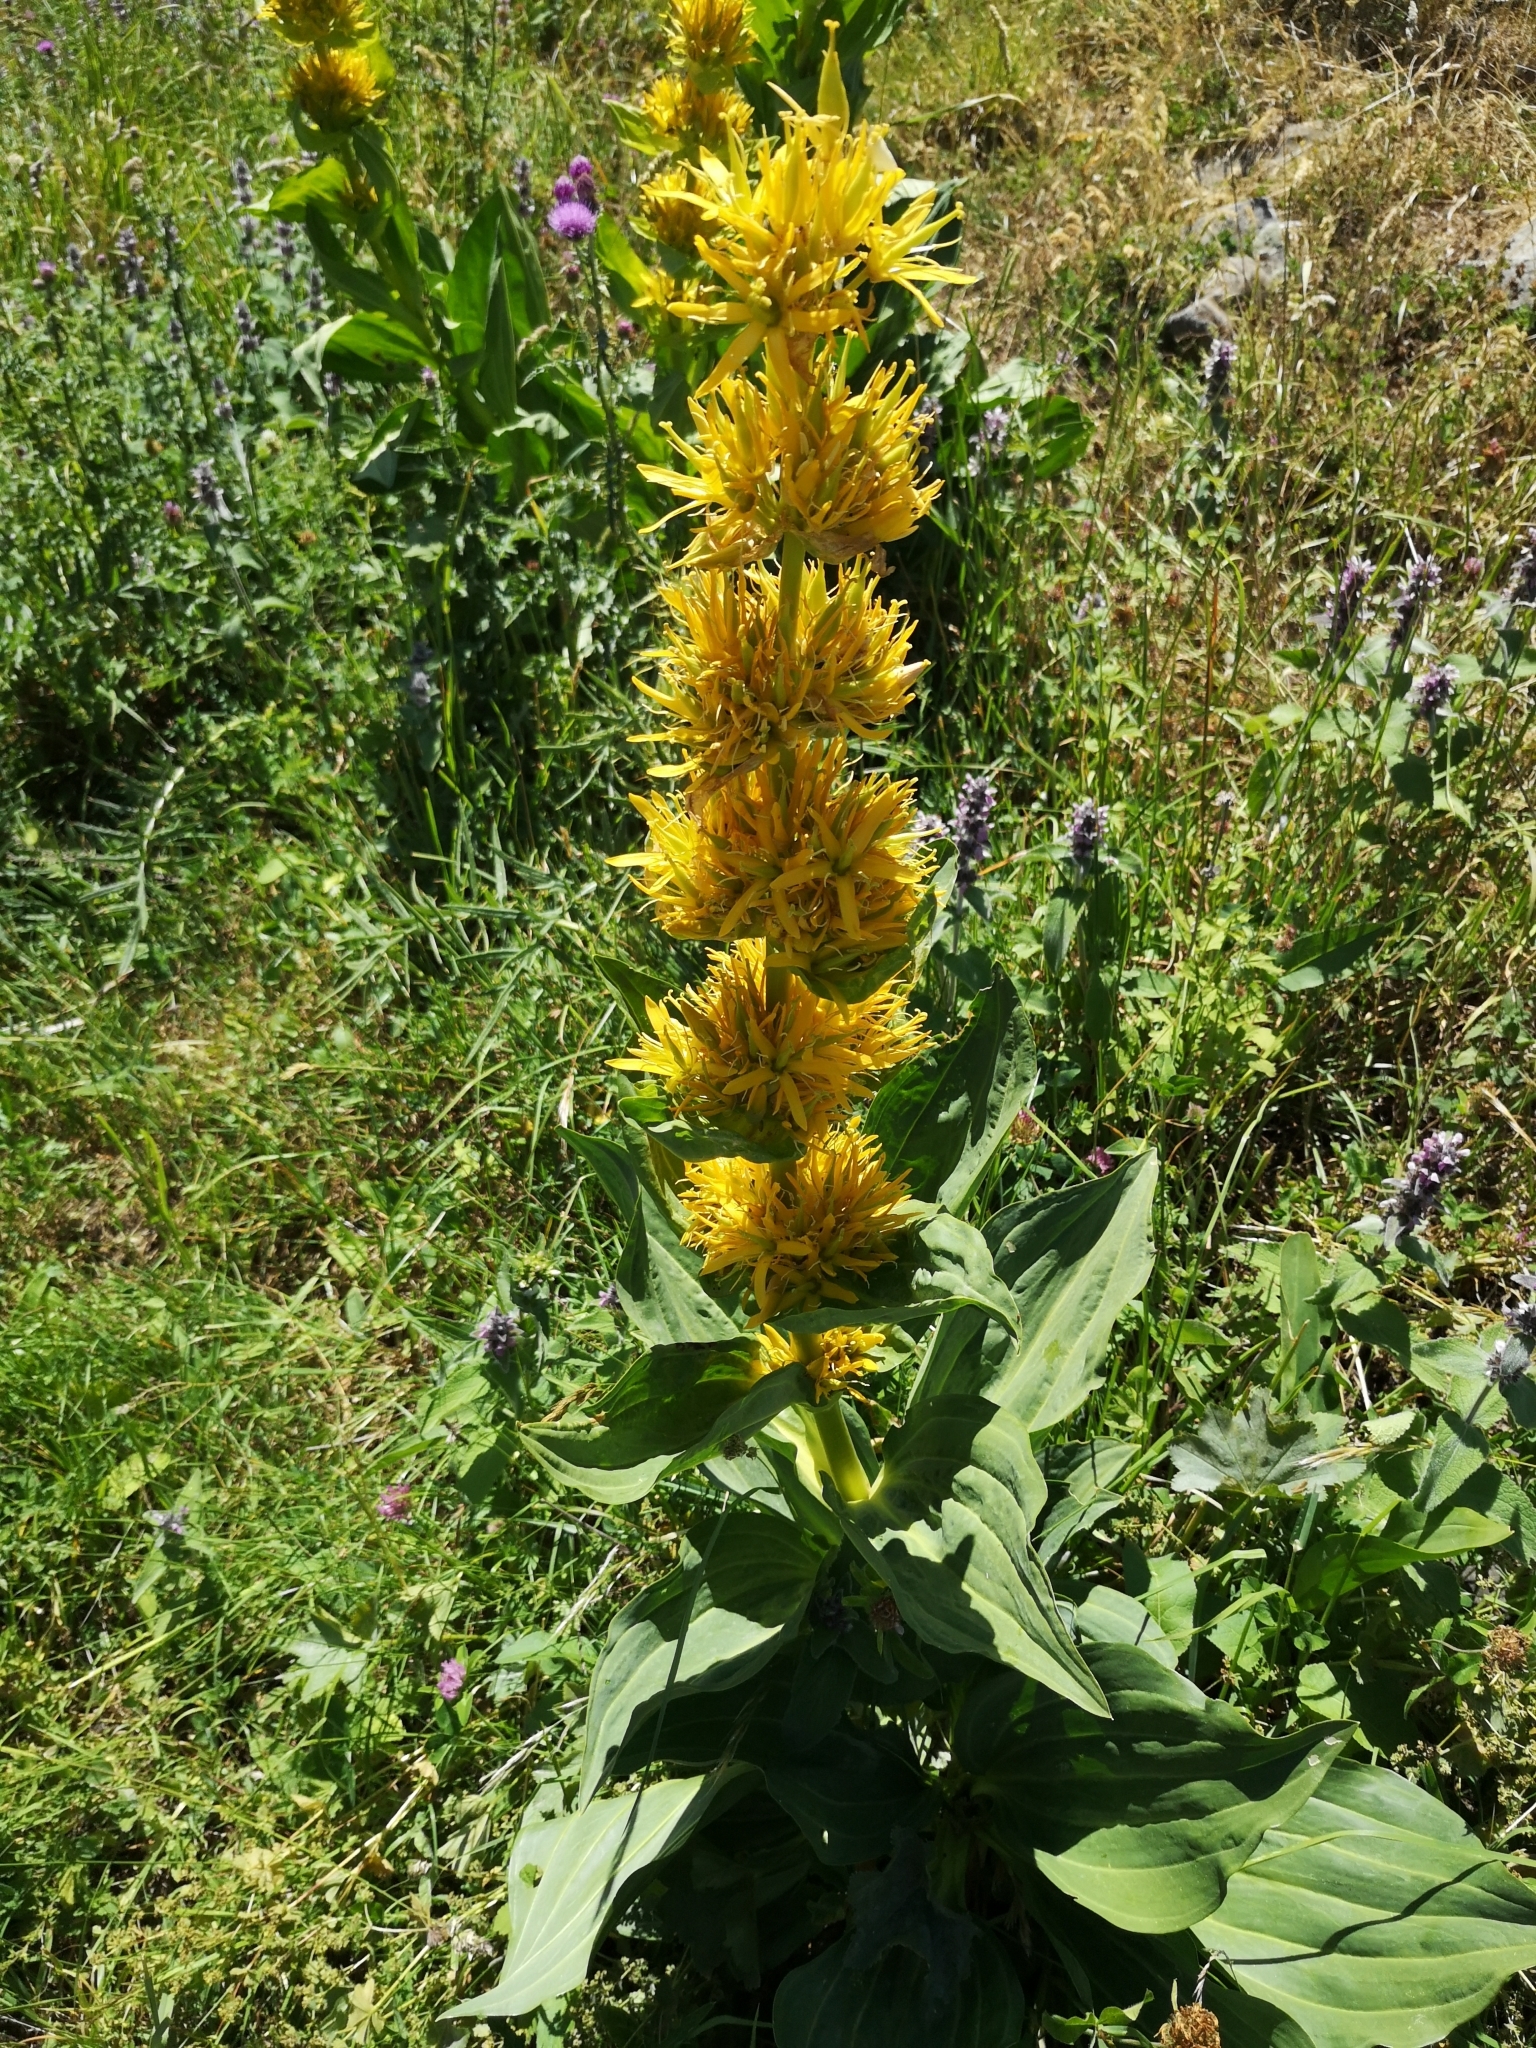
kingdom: Plantae
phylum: Tracheophyta
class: Magnoliopsida
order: Gentianales
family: Gentianaceae
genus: Gentiana
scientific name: Gentiana lutea
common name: Great yellow gentian
